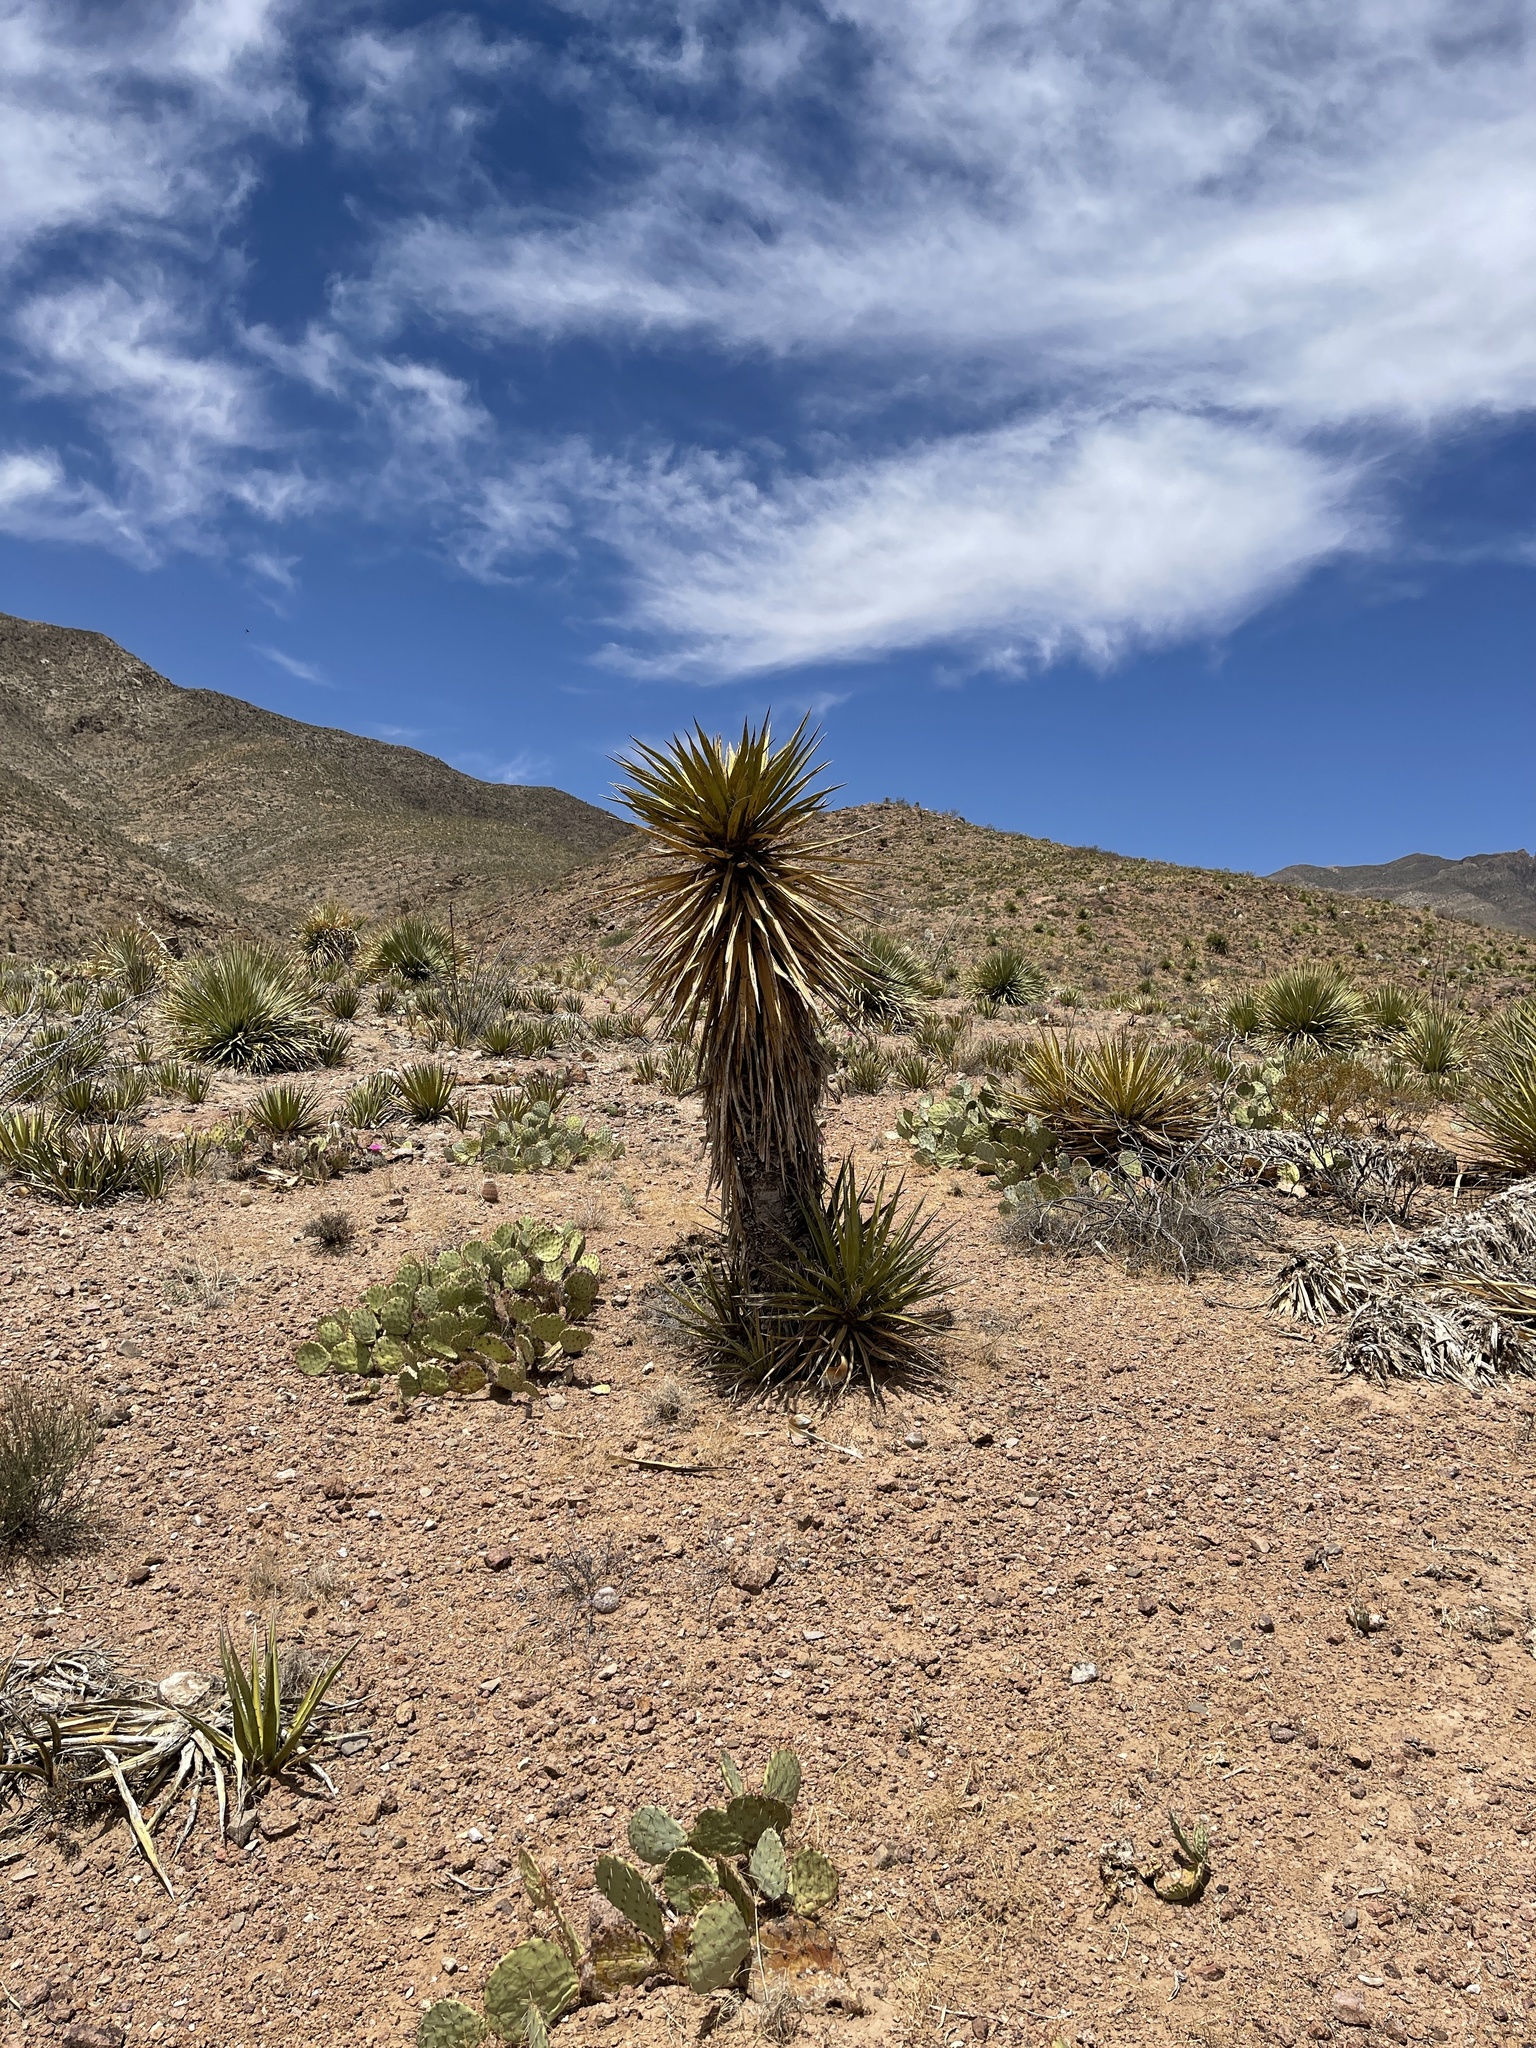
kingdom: Plantae
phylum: Tracheophyta
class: Liliopsida
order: Asparagales
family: Asparagaceae
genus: Yucca
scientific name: Yucca treculiana
